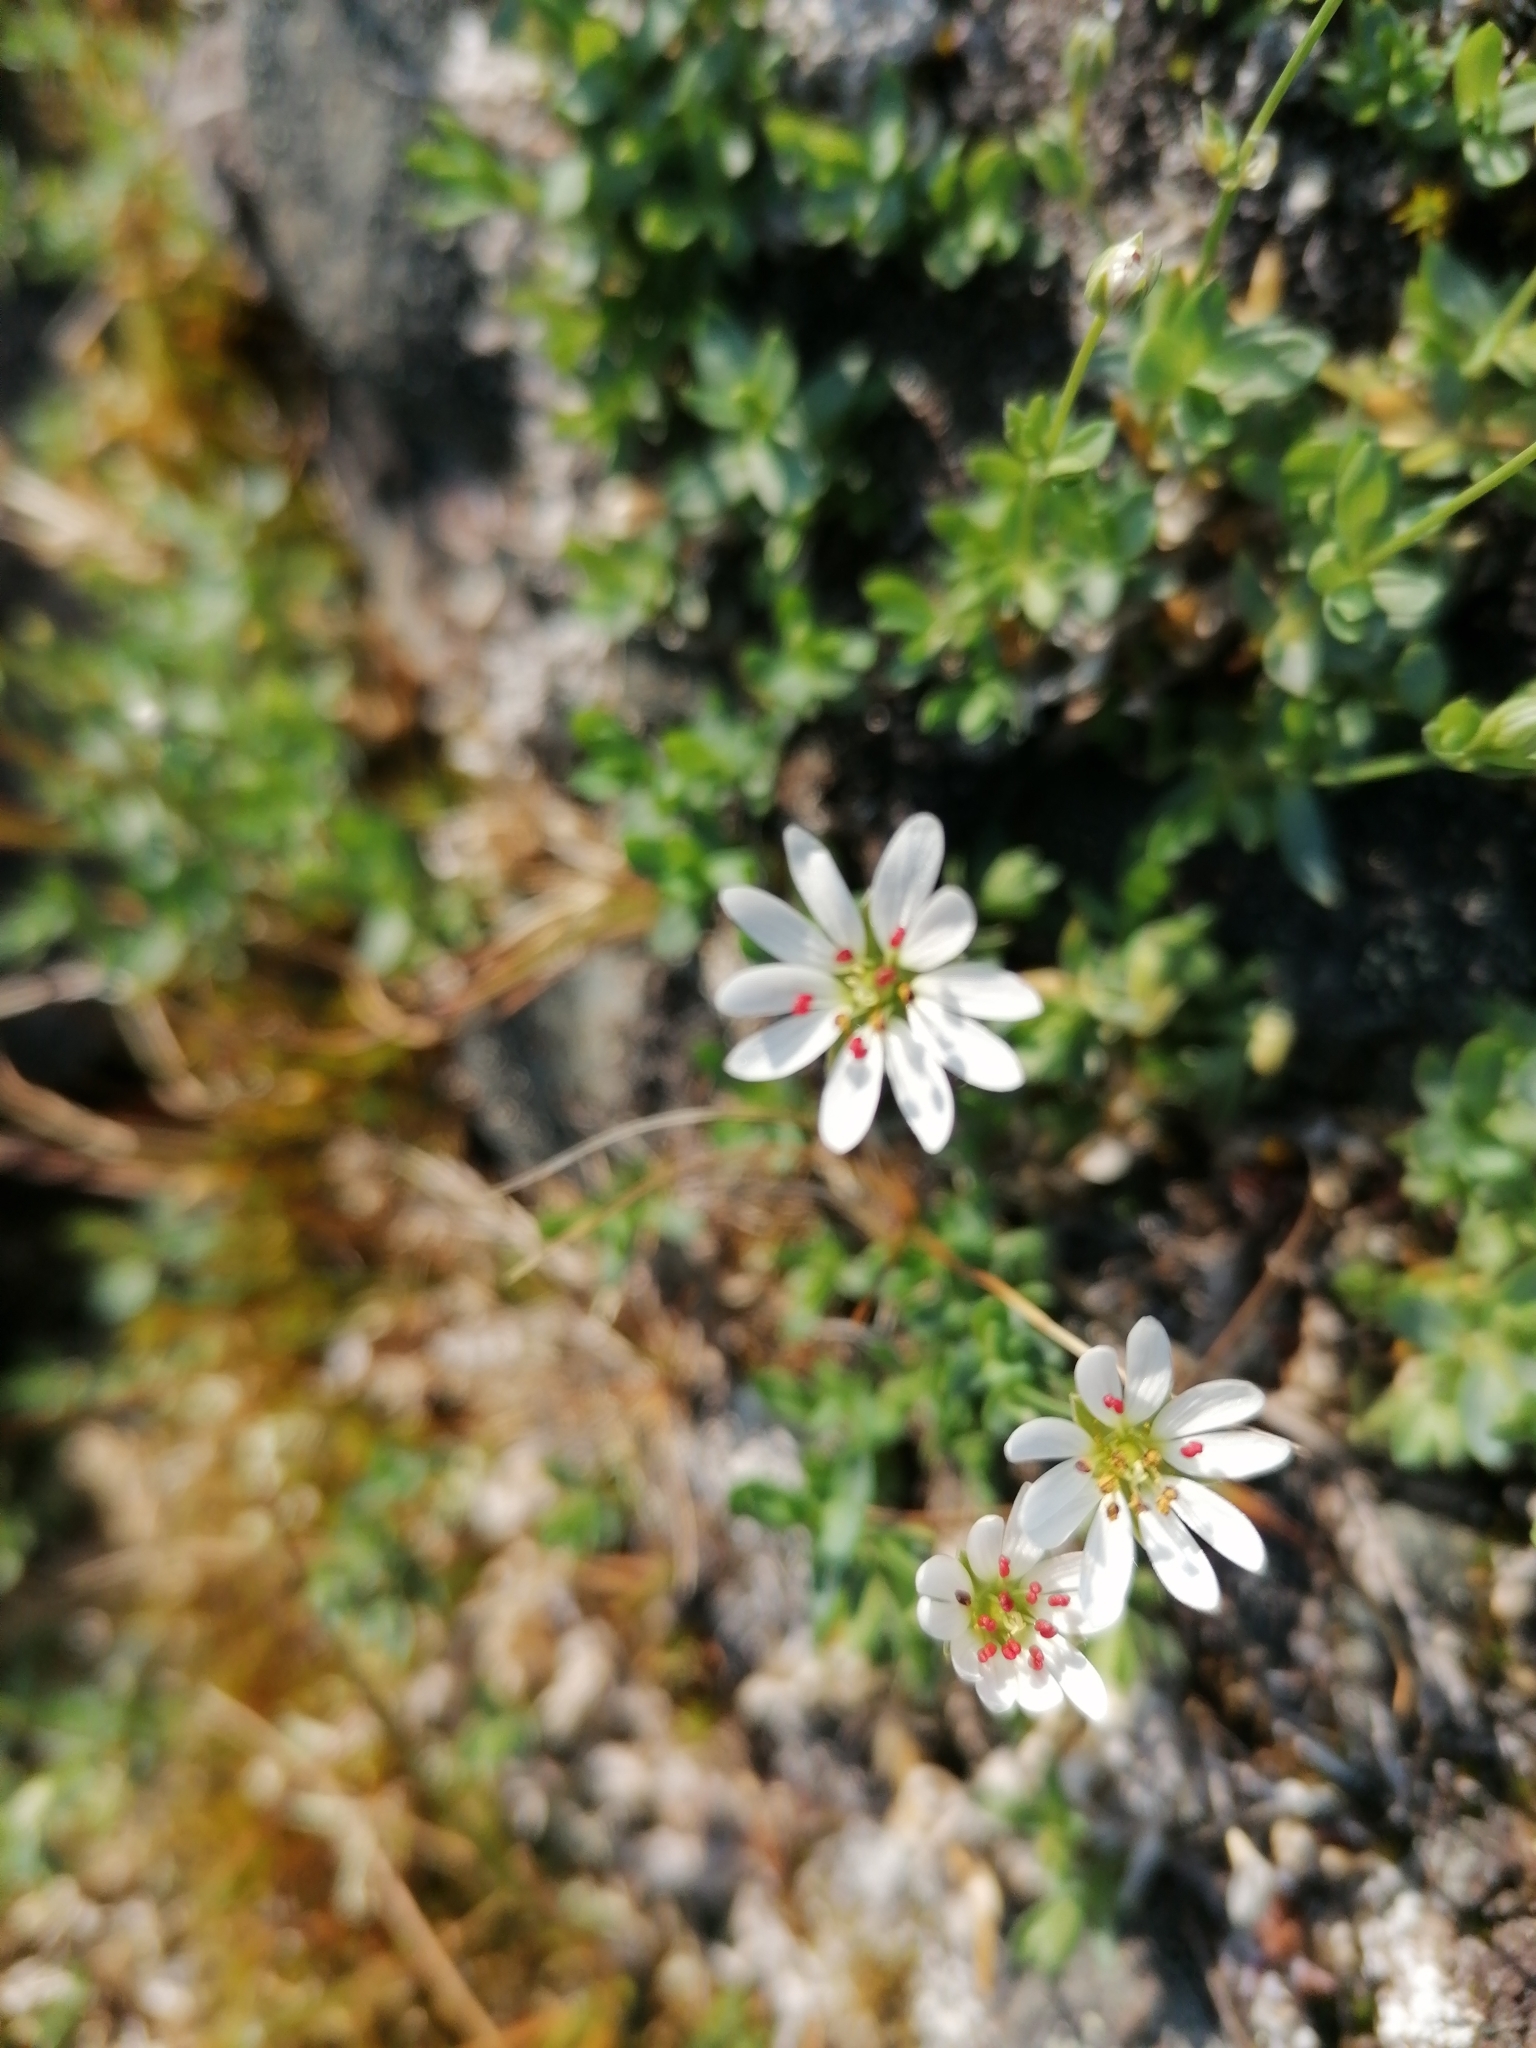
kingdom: Plantae
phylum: Tracheophyta
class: Magnoliopsida
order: Caryophyllales
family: Caryophyllaceae
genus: Stellaria
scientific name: Stellaria longipes
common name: Goldie's starwort
